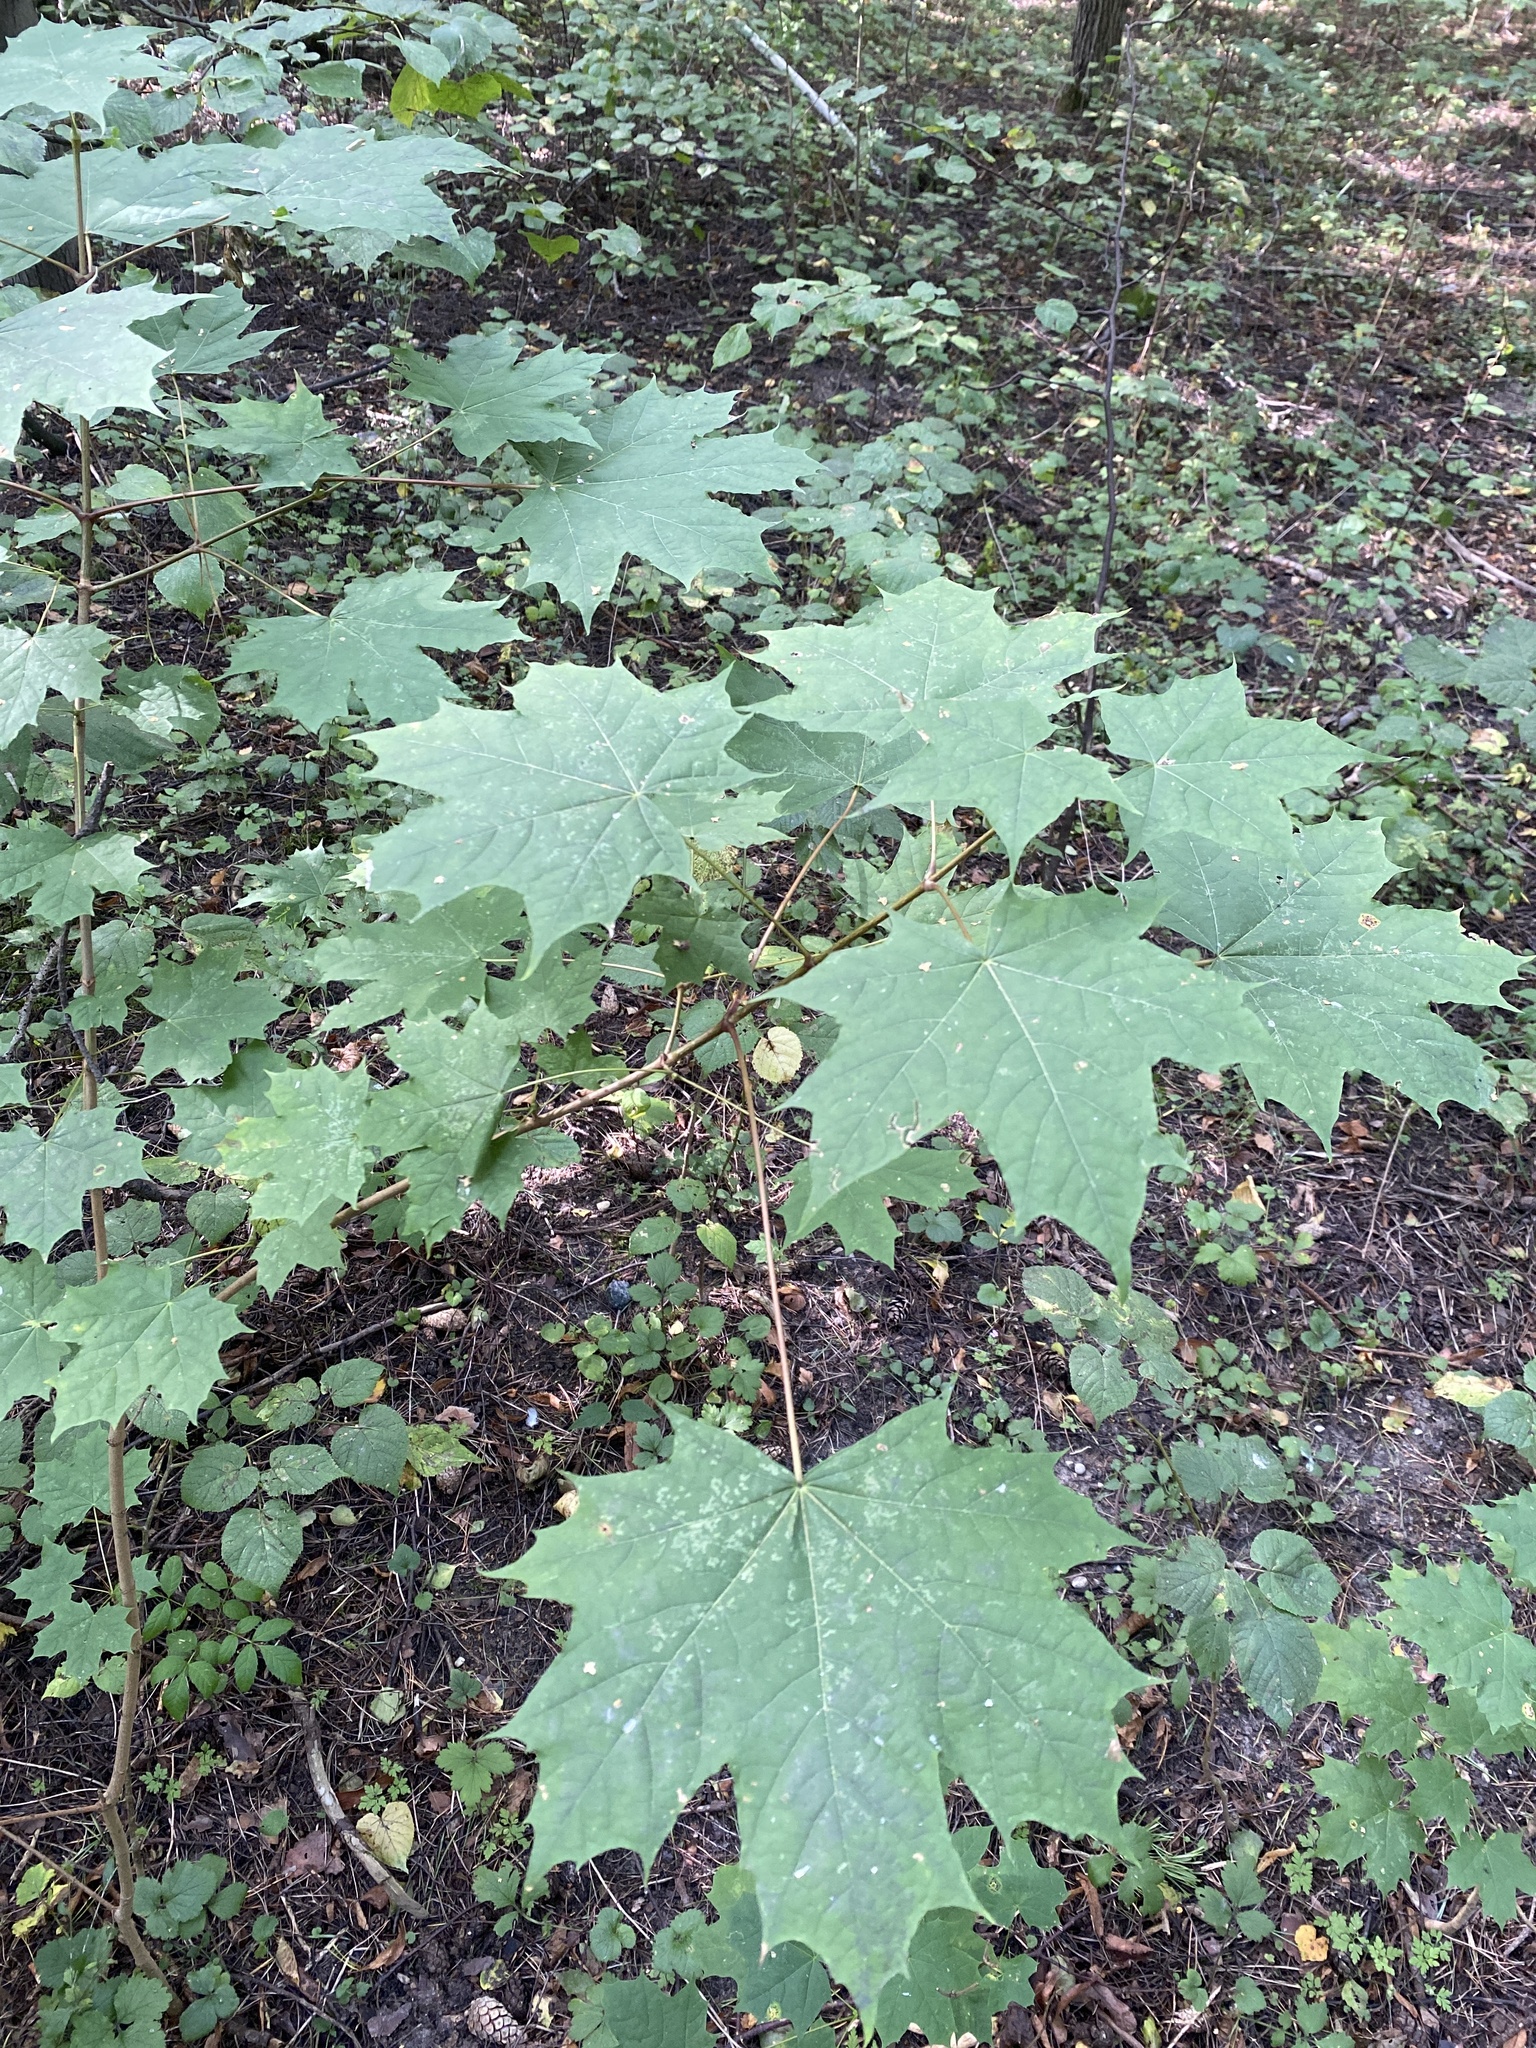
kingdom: Plantae
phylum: Tracheophyta
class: Magnoliopsida
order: Sapindales
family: Sapindaceae
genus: Acer
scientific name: Acer platanoides
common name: Norway maple
